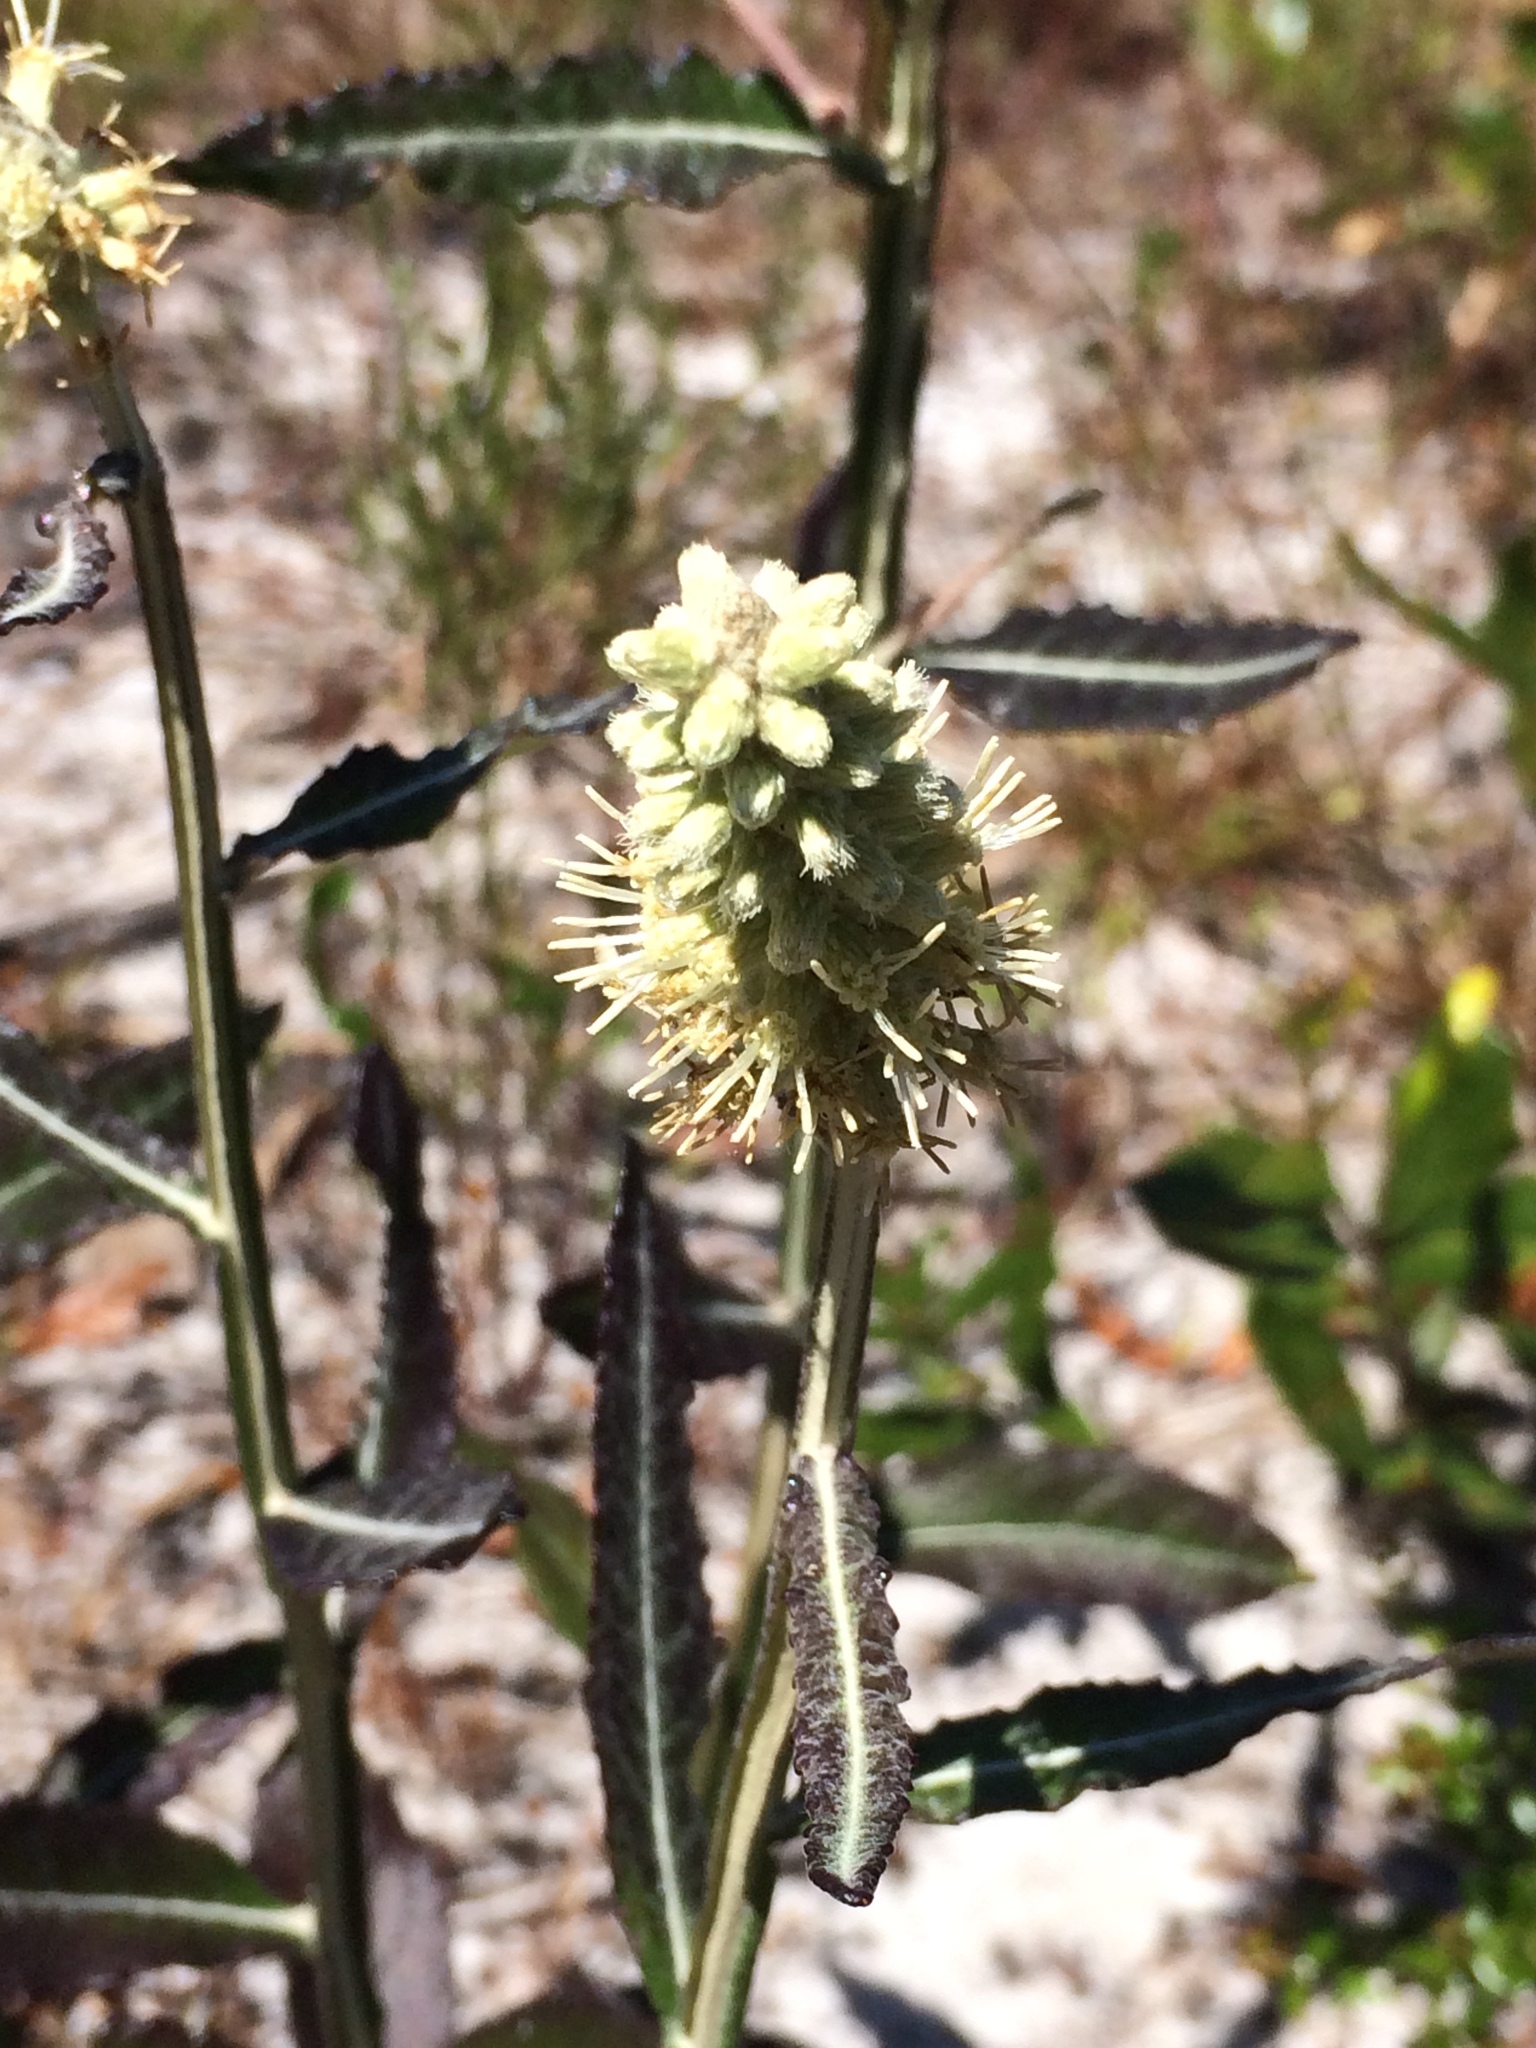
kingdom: Plantae
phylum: Tracheophyta
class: Magnoliopsida
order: Asterales
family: Asteraceae
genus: Pterocaulon
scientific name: Pterocaulon pycnostachyum
